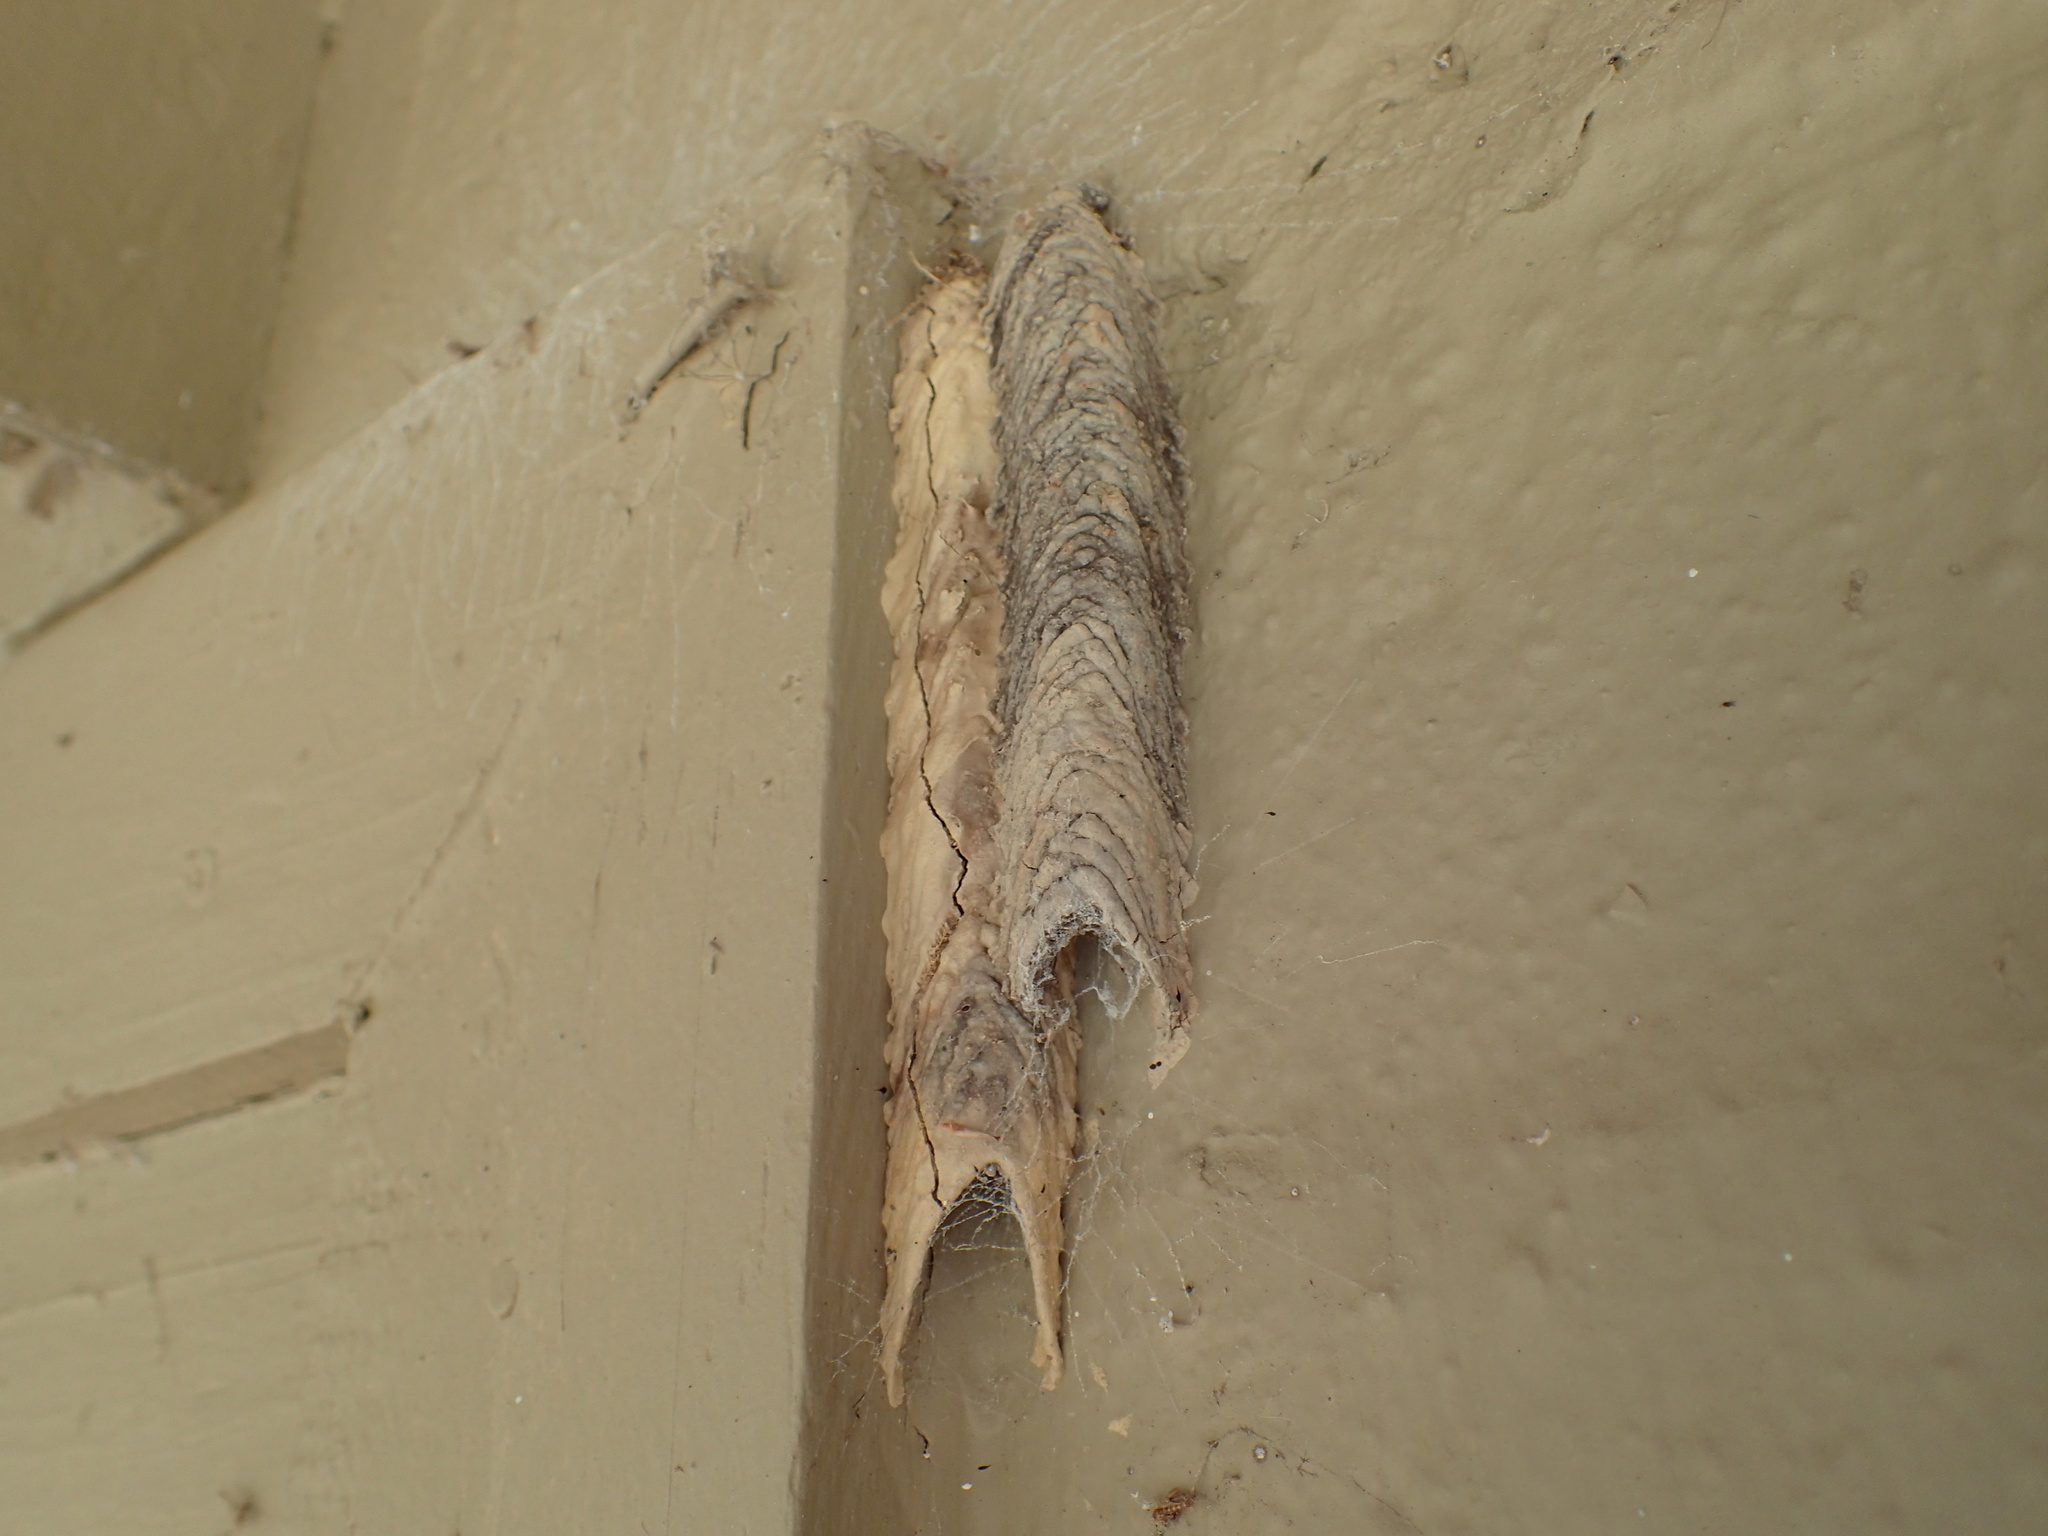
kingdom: Animalia
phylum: Arthropoda
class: Insecta
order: Hymenoptera
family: Crabronidae
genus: Trypoxylon
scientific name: Trypoxylon politum
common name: Organ-pipe mud-dauber wasp
